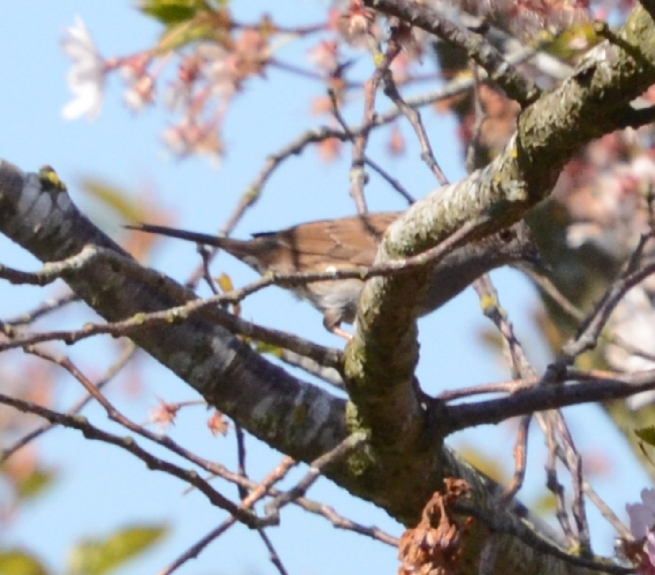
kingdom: Animalia
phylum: Chordata
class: Aves
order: Passeriformes
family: Prunellidae
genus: Prunella
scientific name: Prunella modularis
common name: Dunnock
